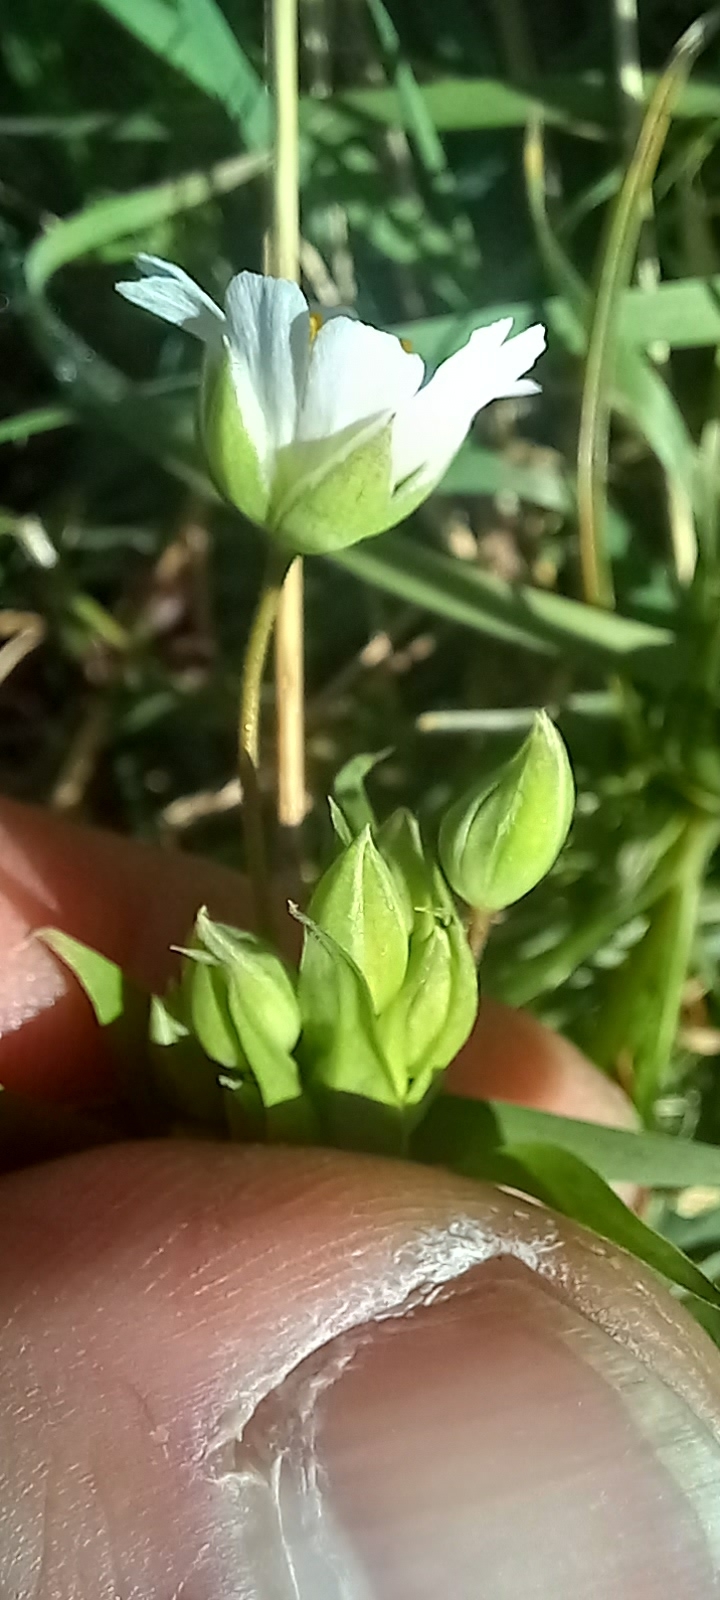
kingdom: Plantae
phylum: Tracheophyta
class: Magnoliopsida
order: Caryophyllales
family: Caryophyllaceae
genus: Rabelera
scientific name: Rabelera holostea
